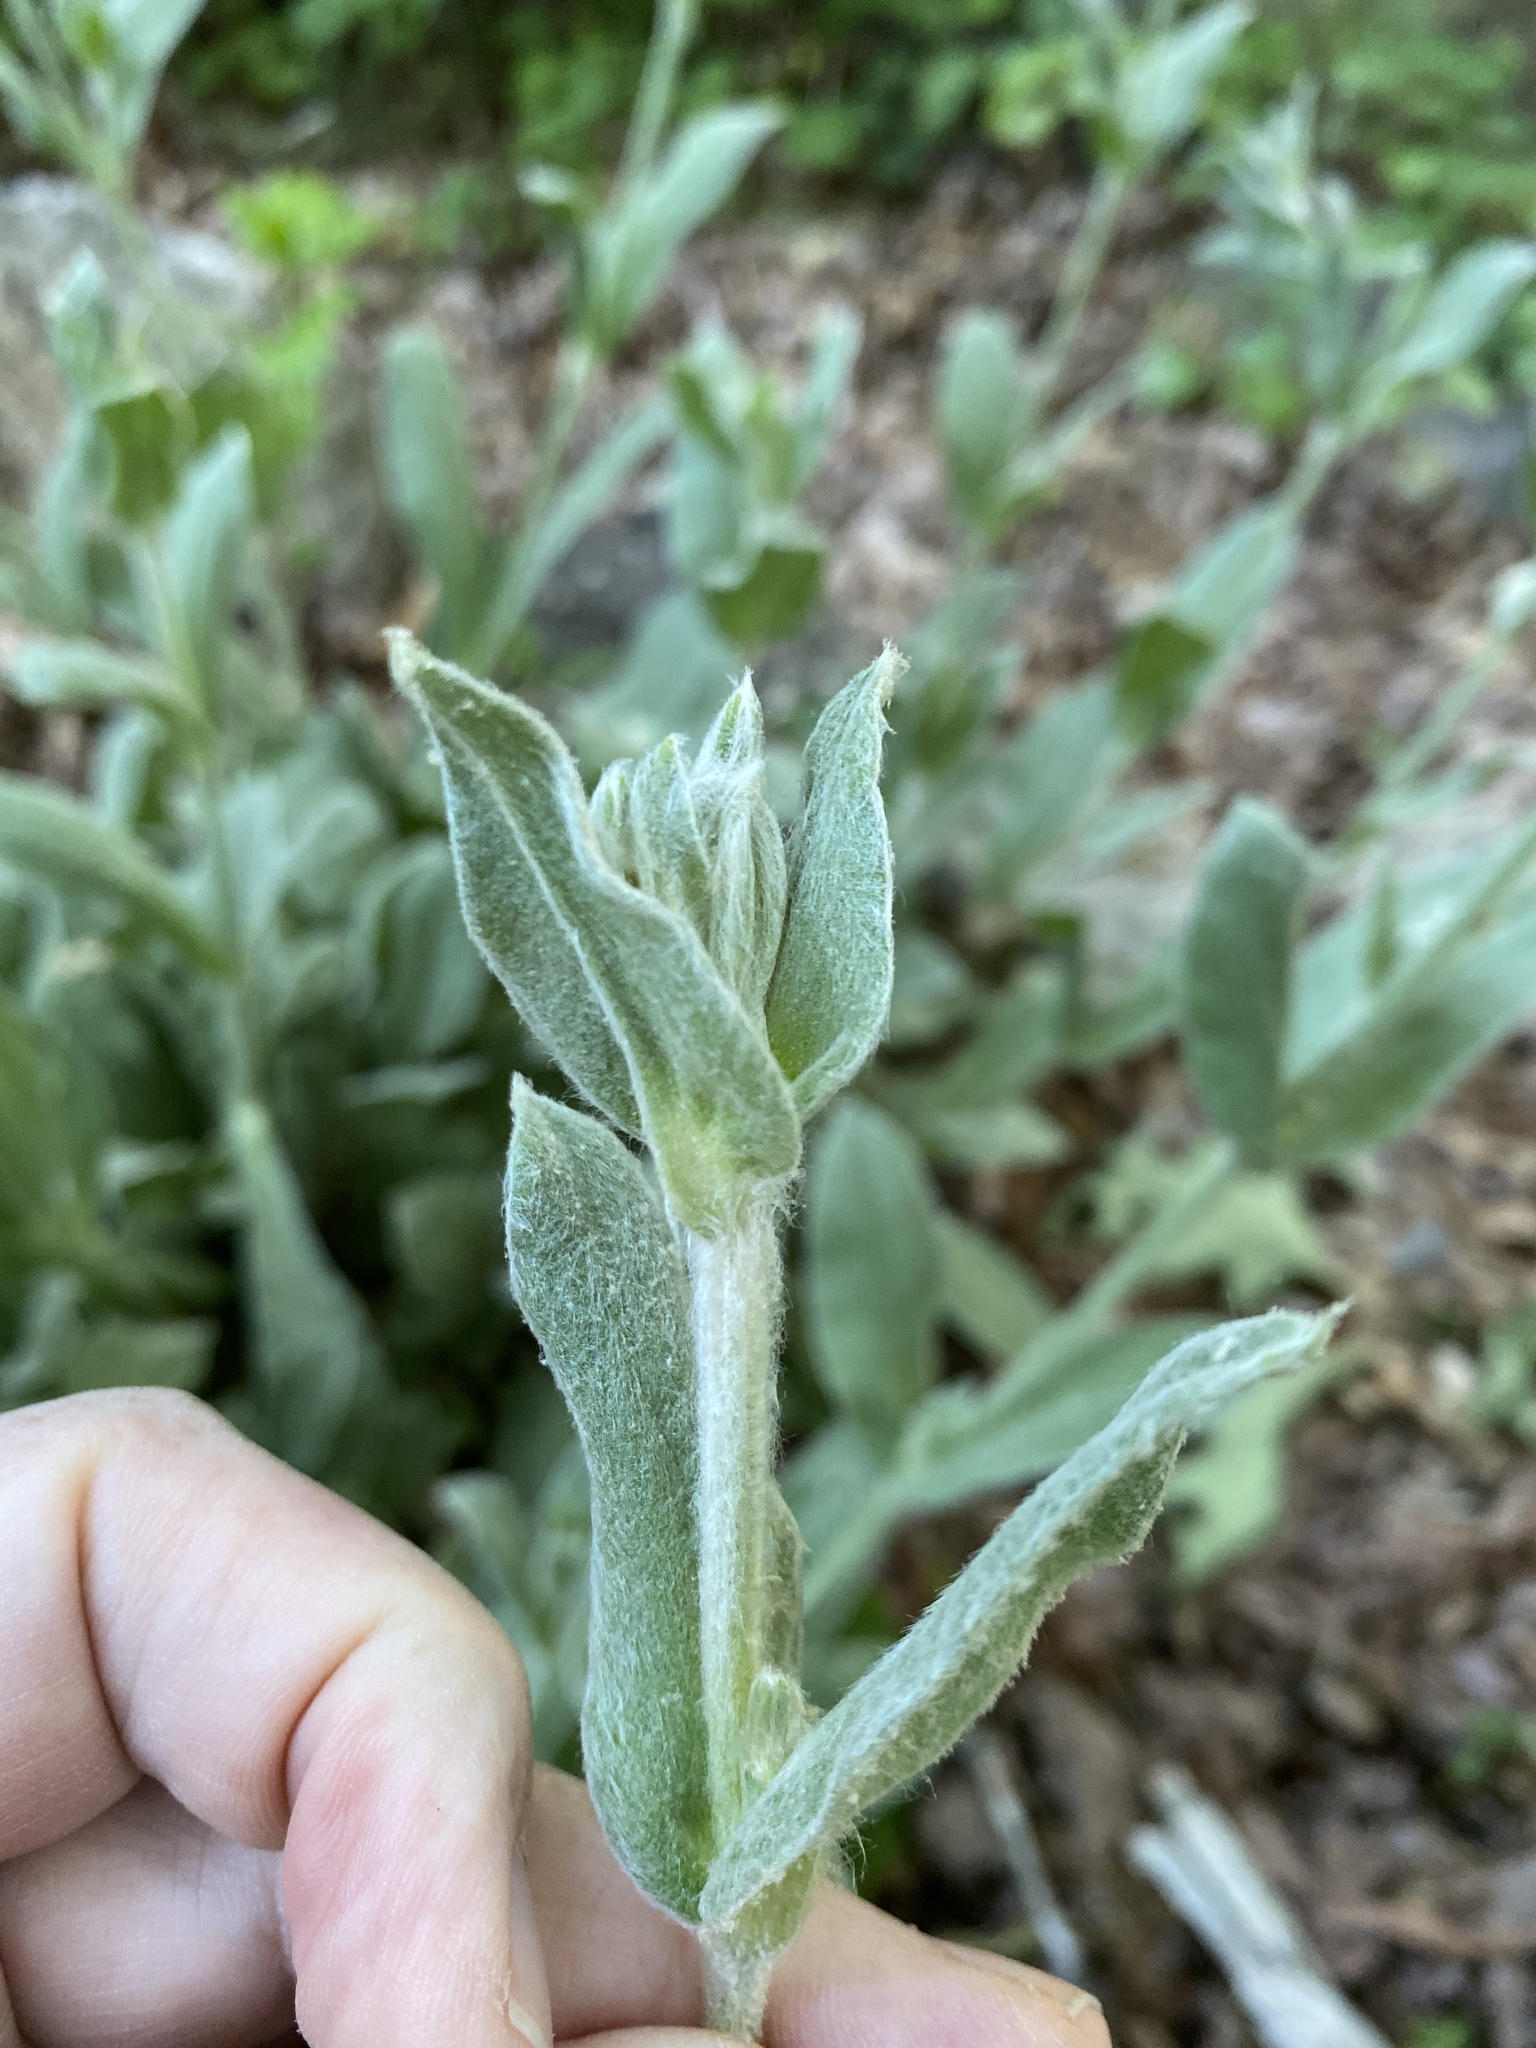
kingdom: Plantae
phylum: Tracheophyta
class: Magnoliopsida
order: Caryophyllales
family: Caryophyllaceae
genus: Silene
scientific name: Silene coronaria
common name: Rose campion
